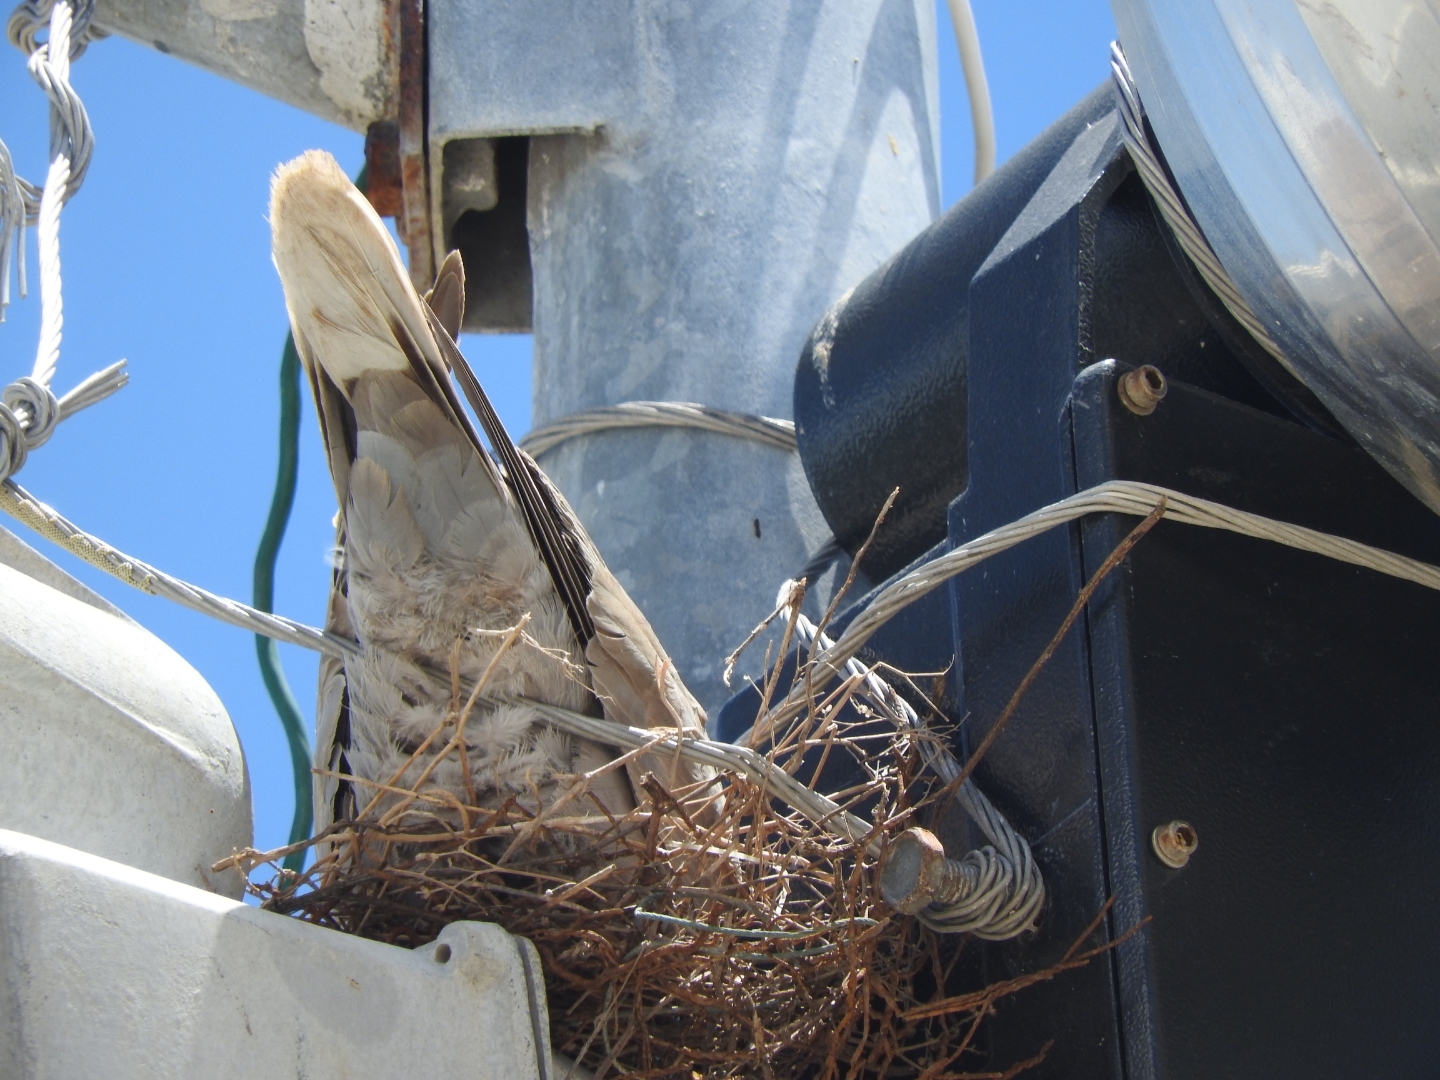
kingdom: Animalia
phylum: Chordata
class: Aves
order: Columbiformes
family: Columbidae
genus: Streptopelia
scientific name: Streptopelia decaocto
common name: Eurasian collared dove
